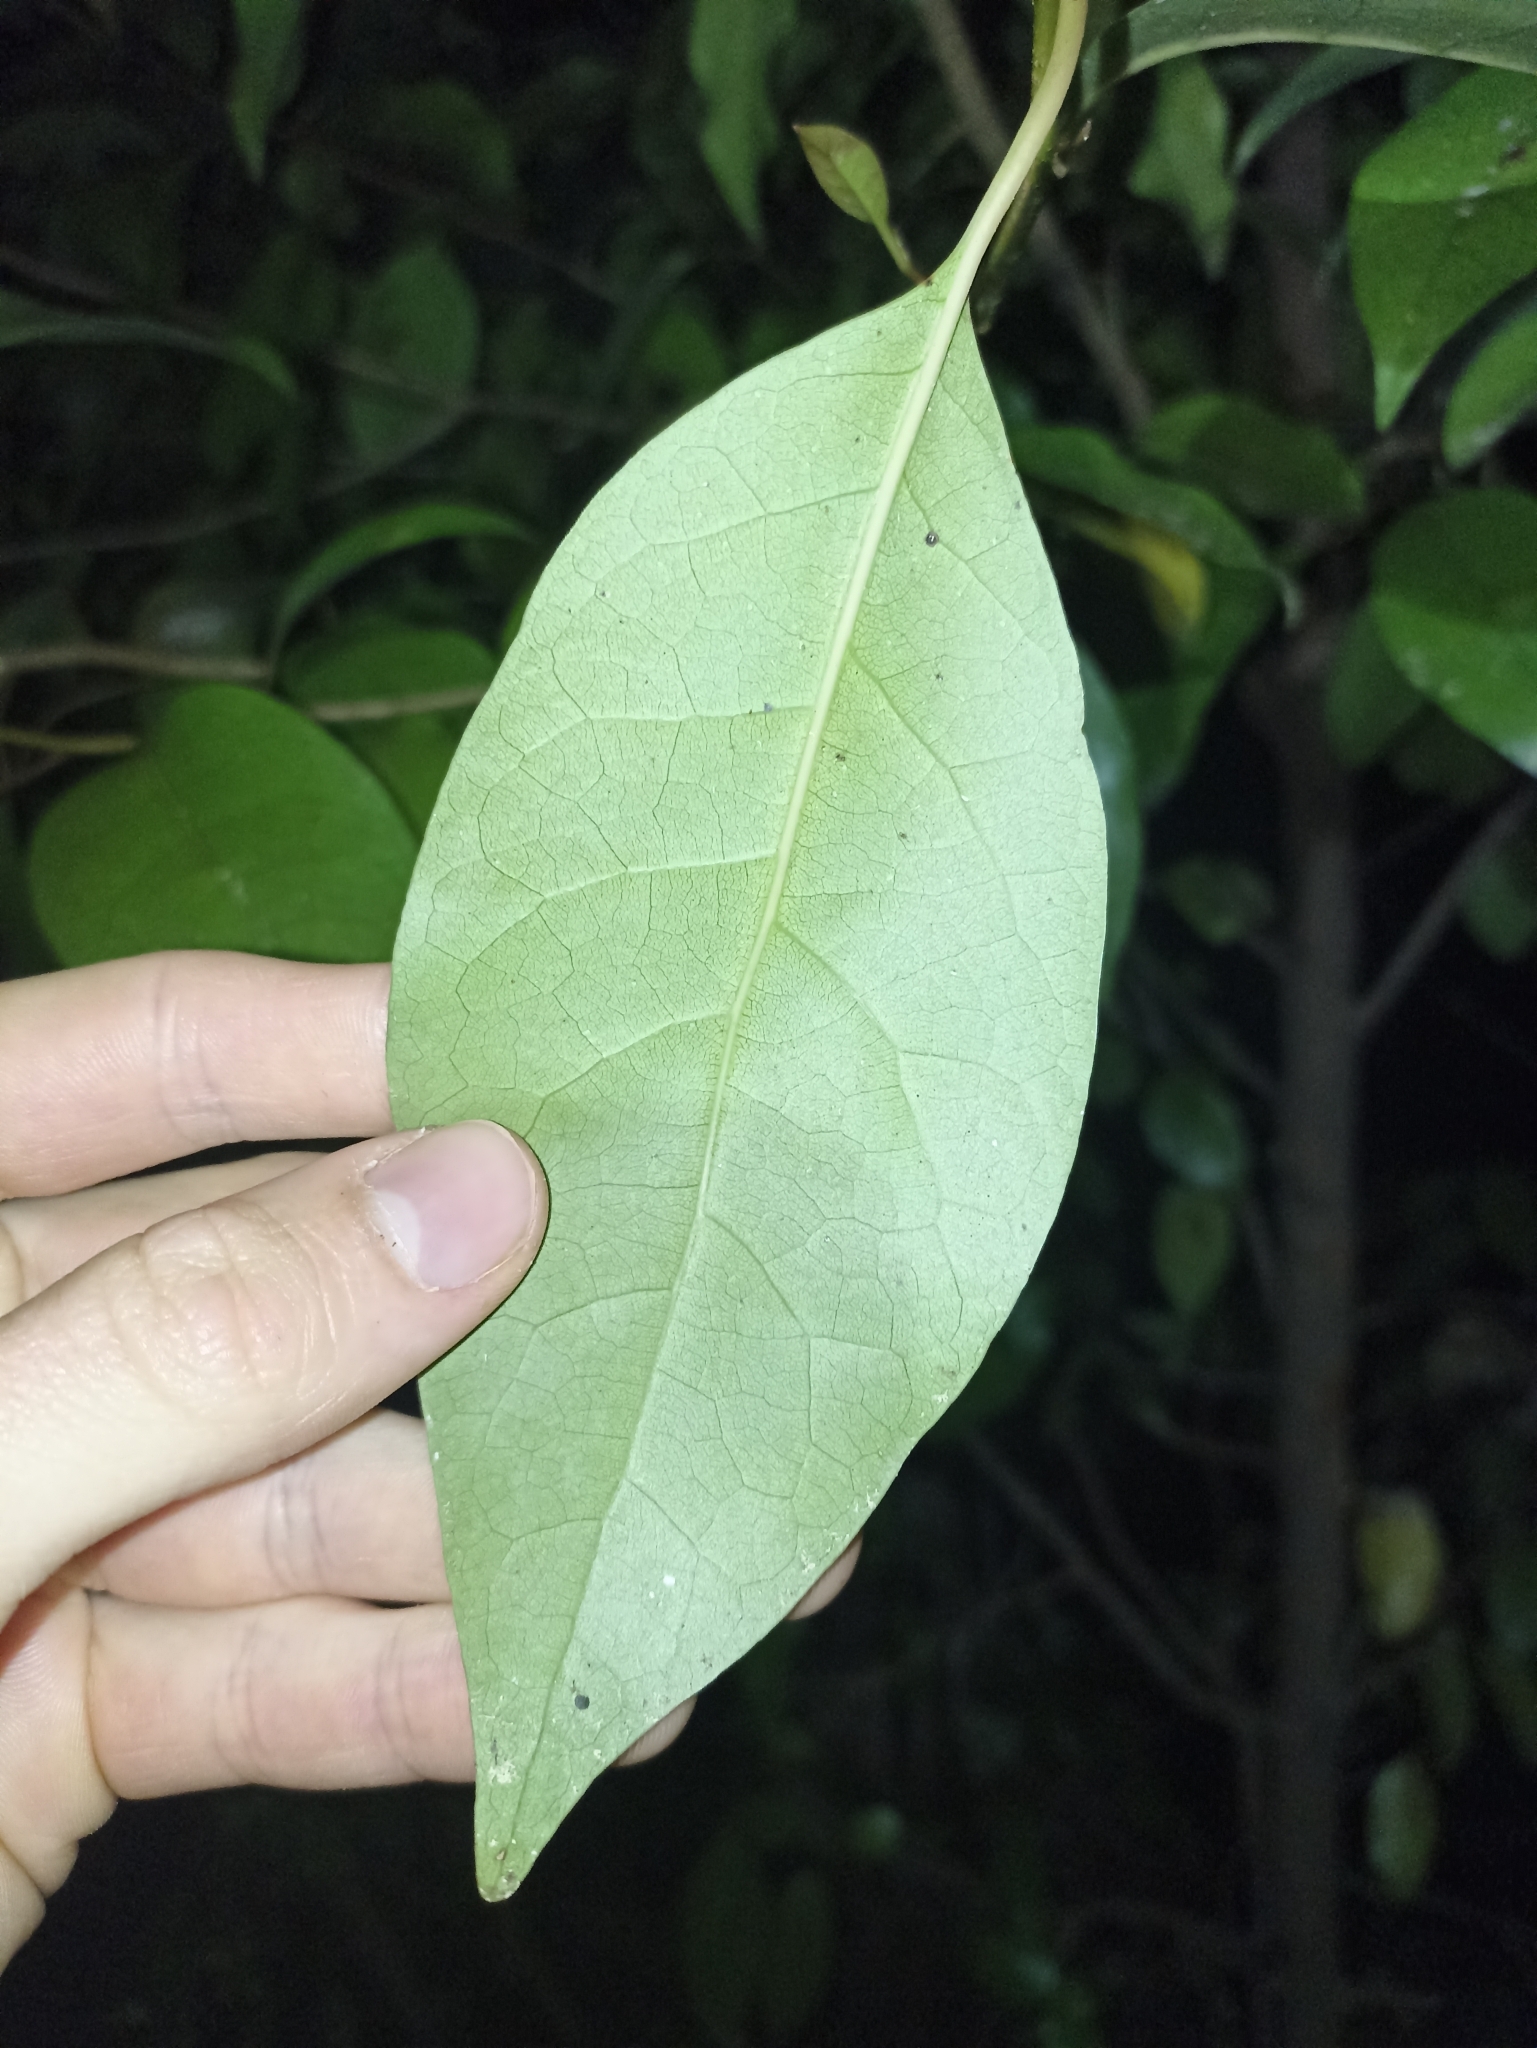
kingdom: Plantae
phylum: Tracheophyta
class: Magnoliopsida
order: Laurales
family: Lauraceae
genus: Litsea
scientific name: Litsea calicaris
